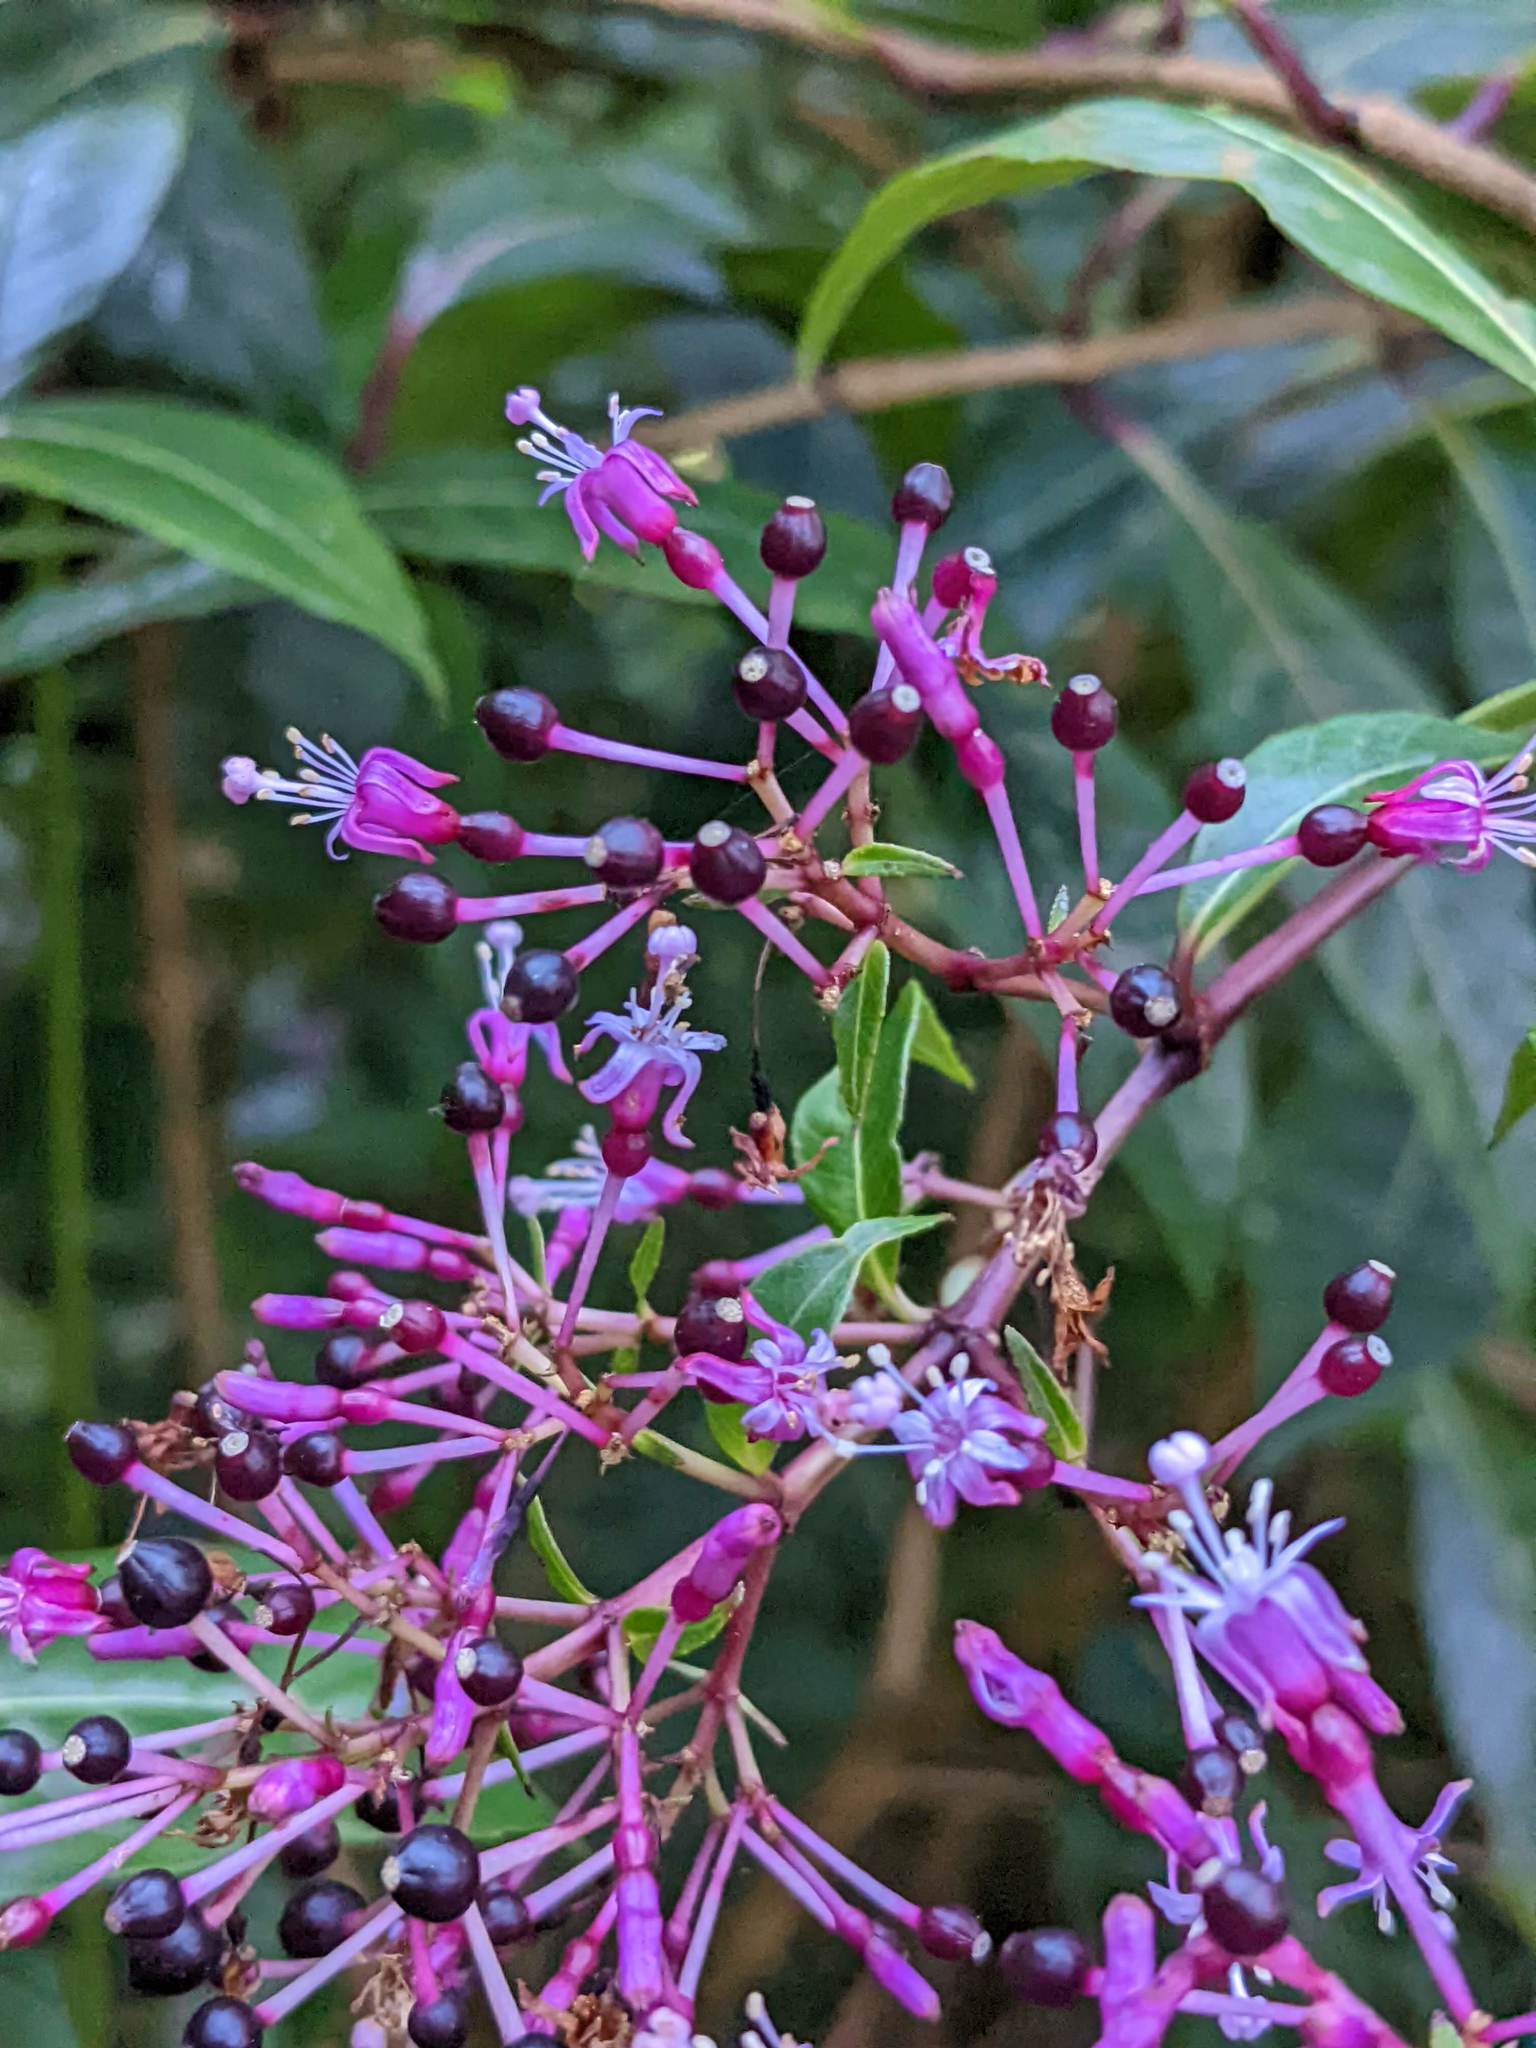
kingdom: Plantae
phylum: Tracheophyta
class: Magnoliopsida
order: Myrtales
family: Onagraceae
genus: Fuchsia
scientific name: Fuchsia paniculata
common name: Shrubby fuchsia
